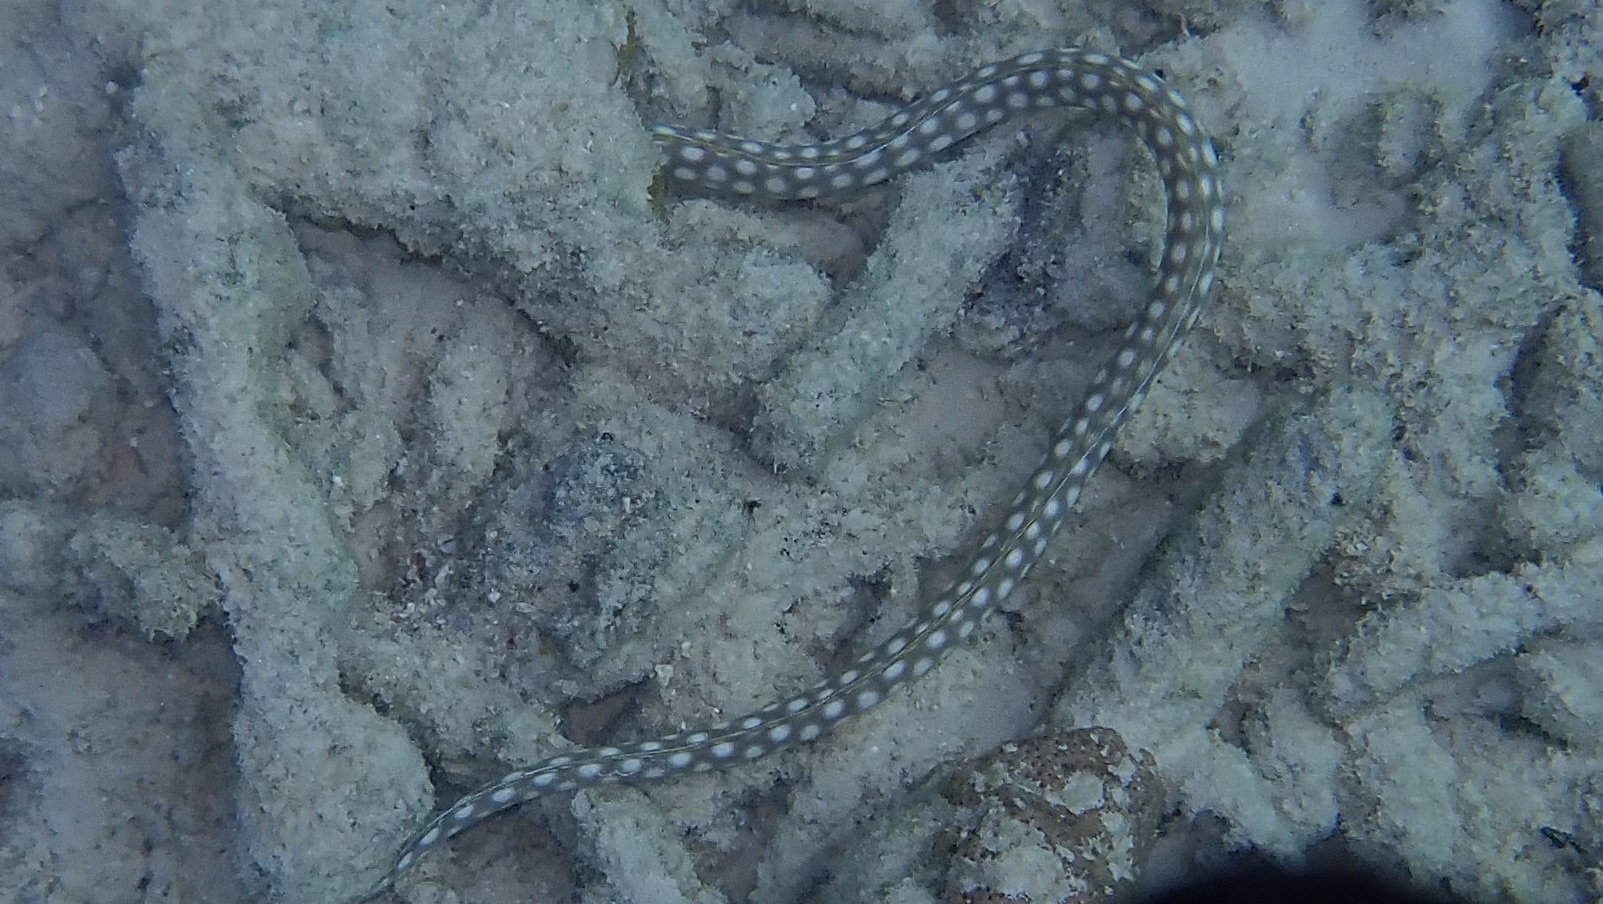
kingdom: Animalia
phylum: Chordata
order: Anguilliformes
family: Ophichthidae
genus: Myrichthys
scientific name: Myrichthys breviceps
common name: Sharptail eel
